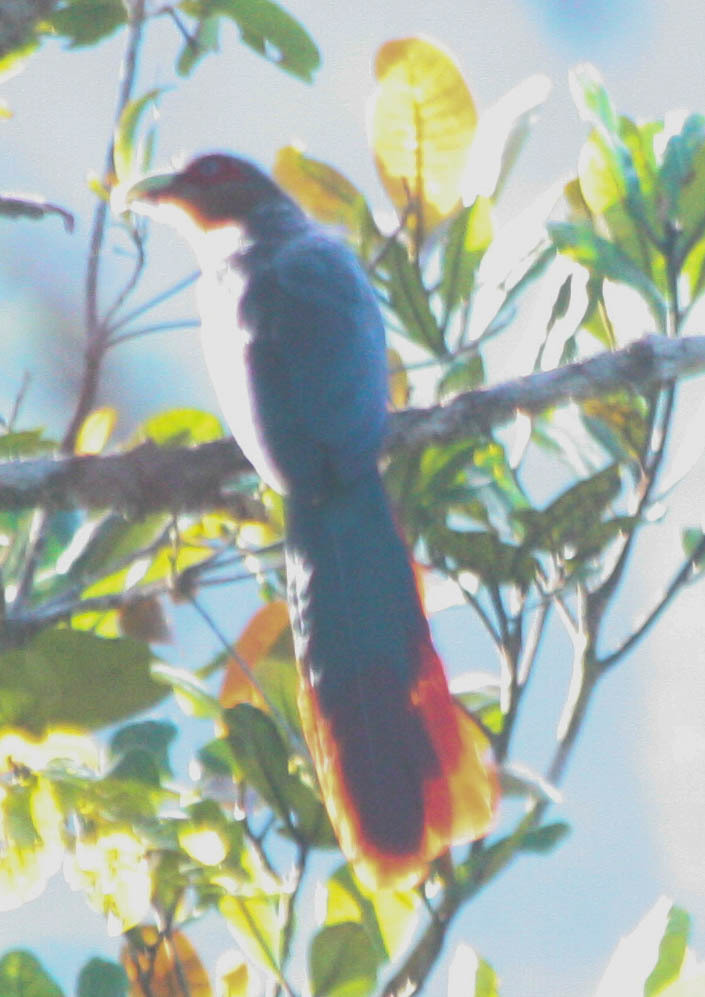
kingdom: Animalia
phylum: Chordata
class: Aves
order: Cuculiformes
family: Cuculidae
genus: Zanclostomus
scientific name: Zanclostomus curvirostris
